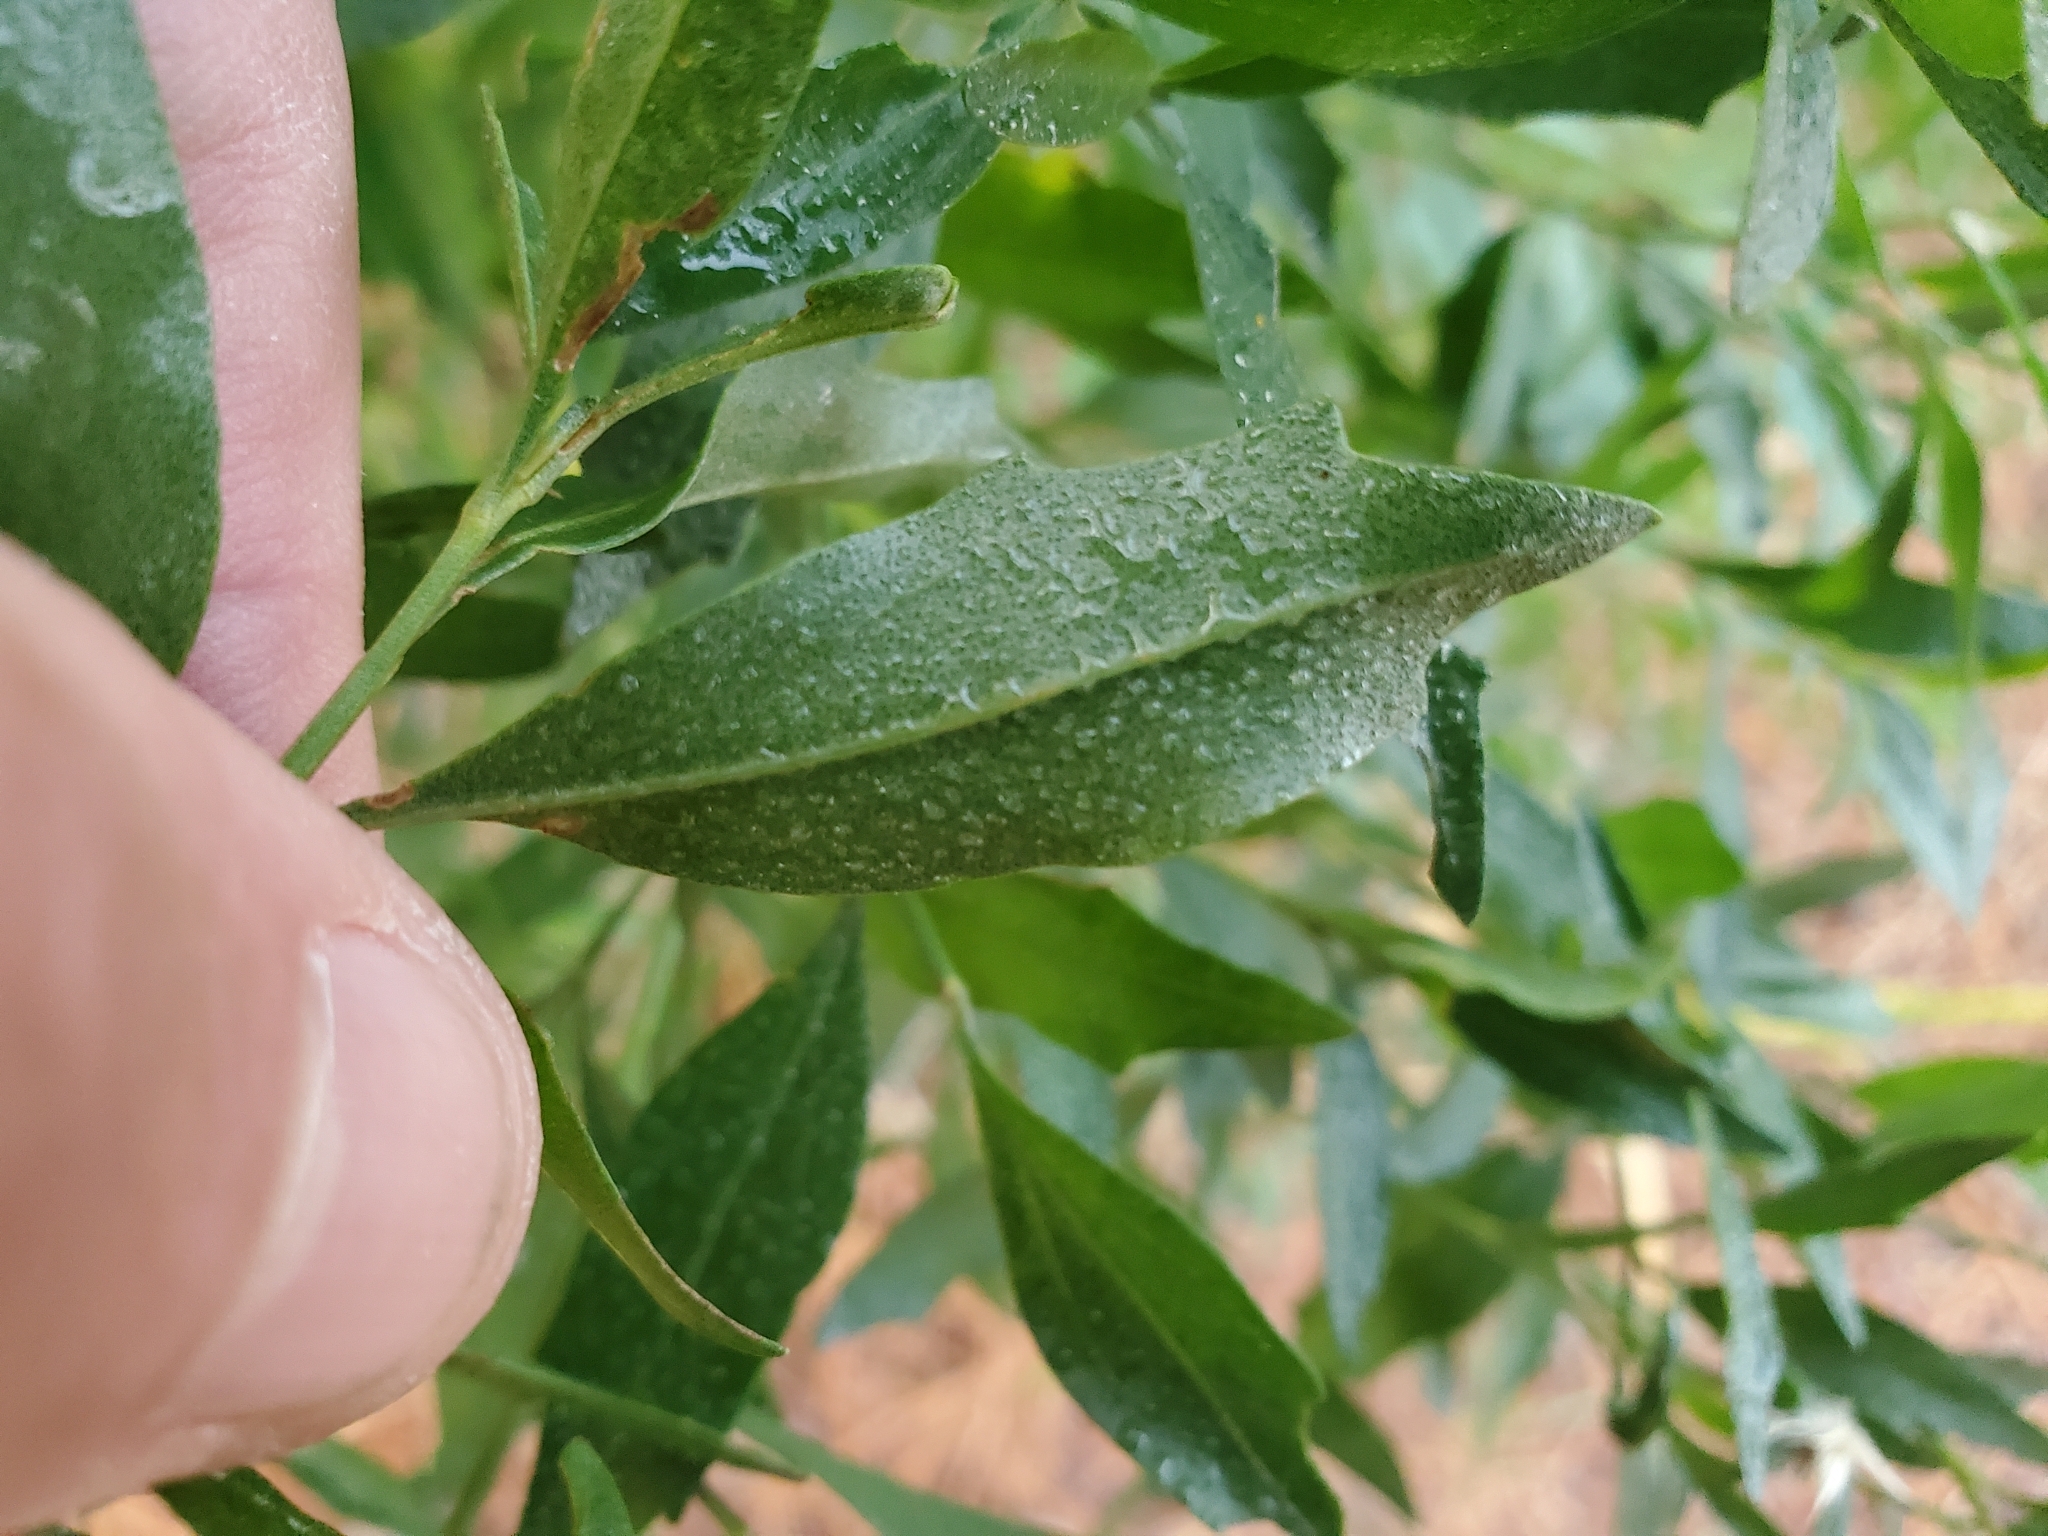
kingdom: Plantae
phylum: Tracheophyta
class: Magnoliopsida
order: Asterales
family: Asteraceae
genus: Baccharis
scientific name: Baccharis halimifolia
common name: Eastern baccharis
